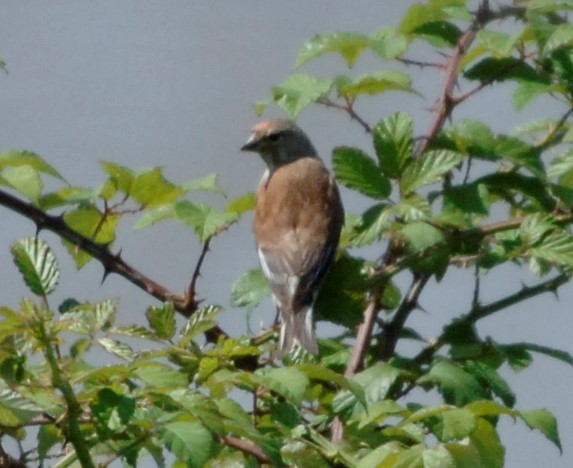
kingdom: Animalia
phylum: Chordata
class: Aves
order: Passeriformes
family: Fringillidae
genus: Linaria
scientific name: Linaria cannabina
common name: Common linnet
